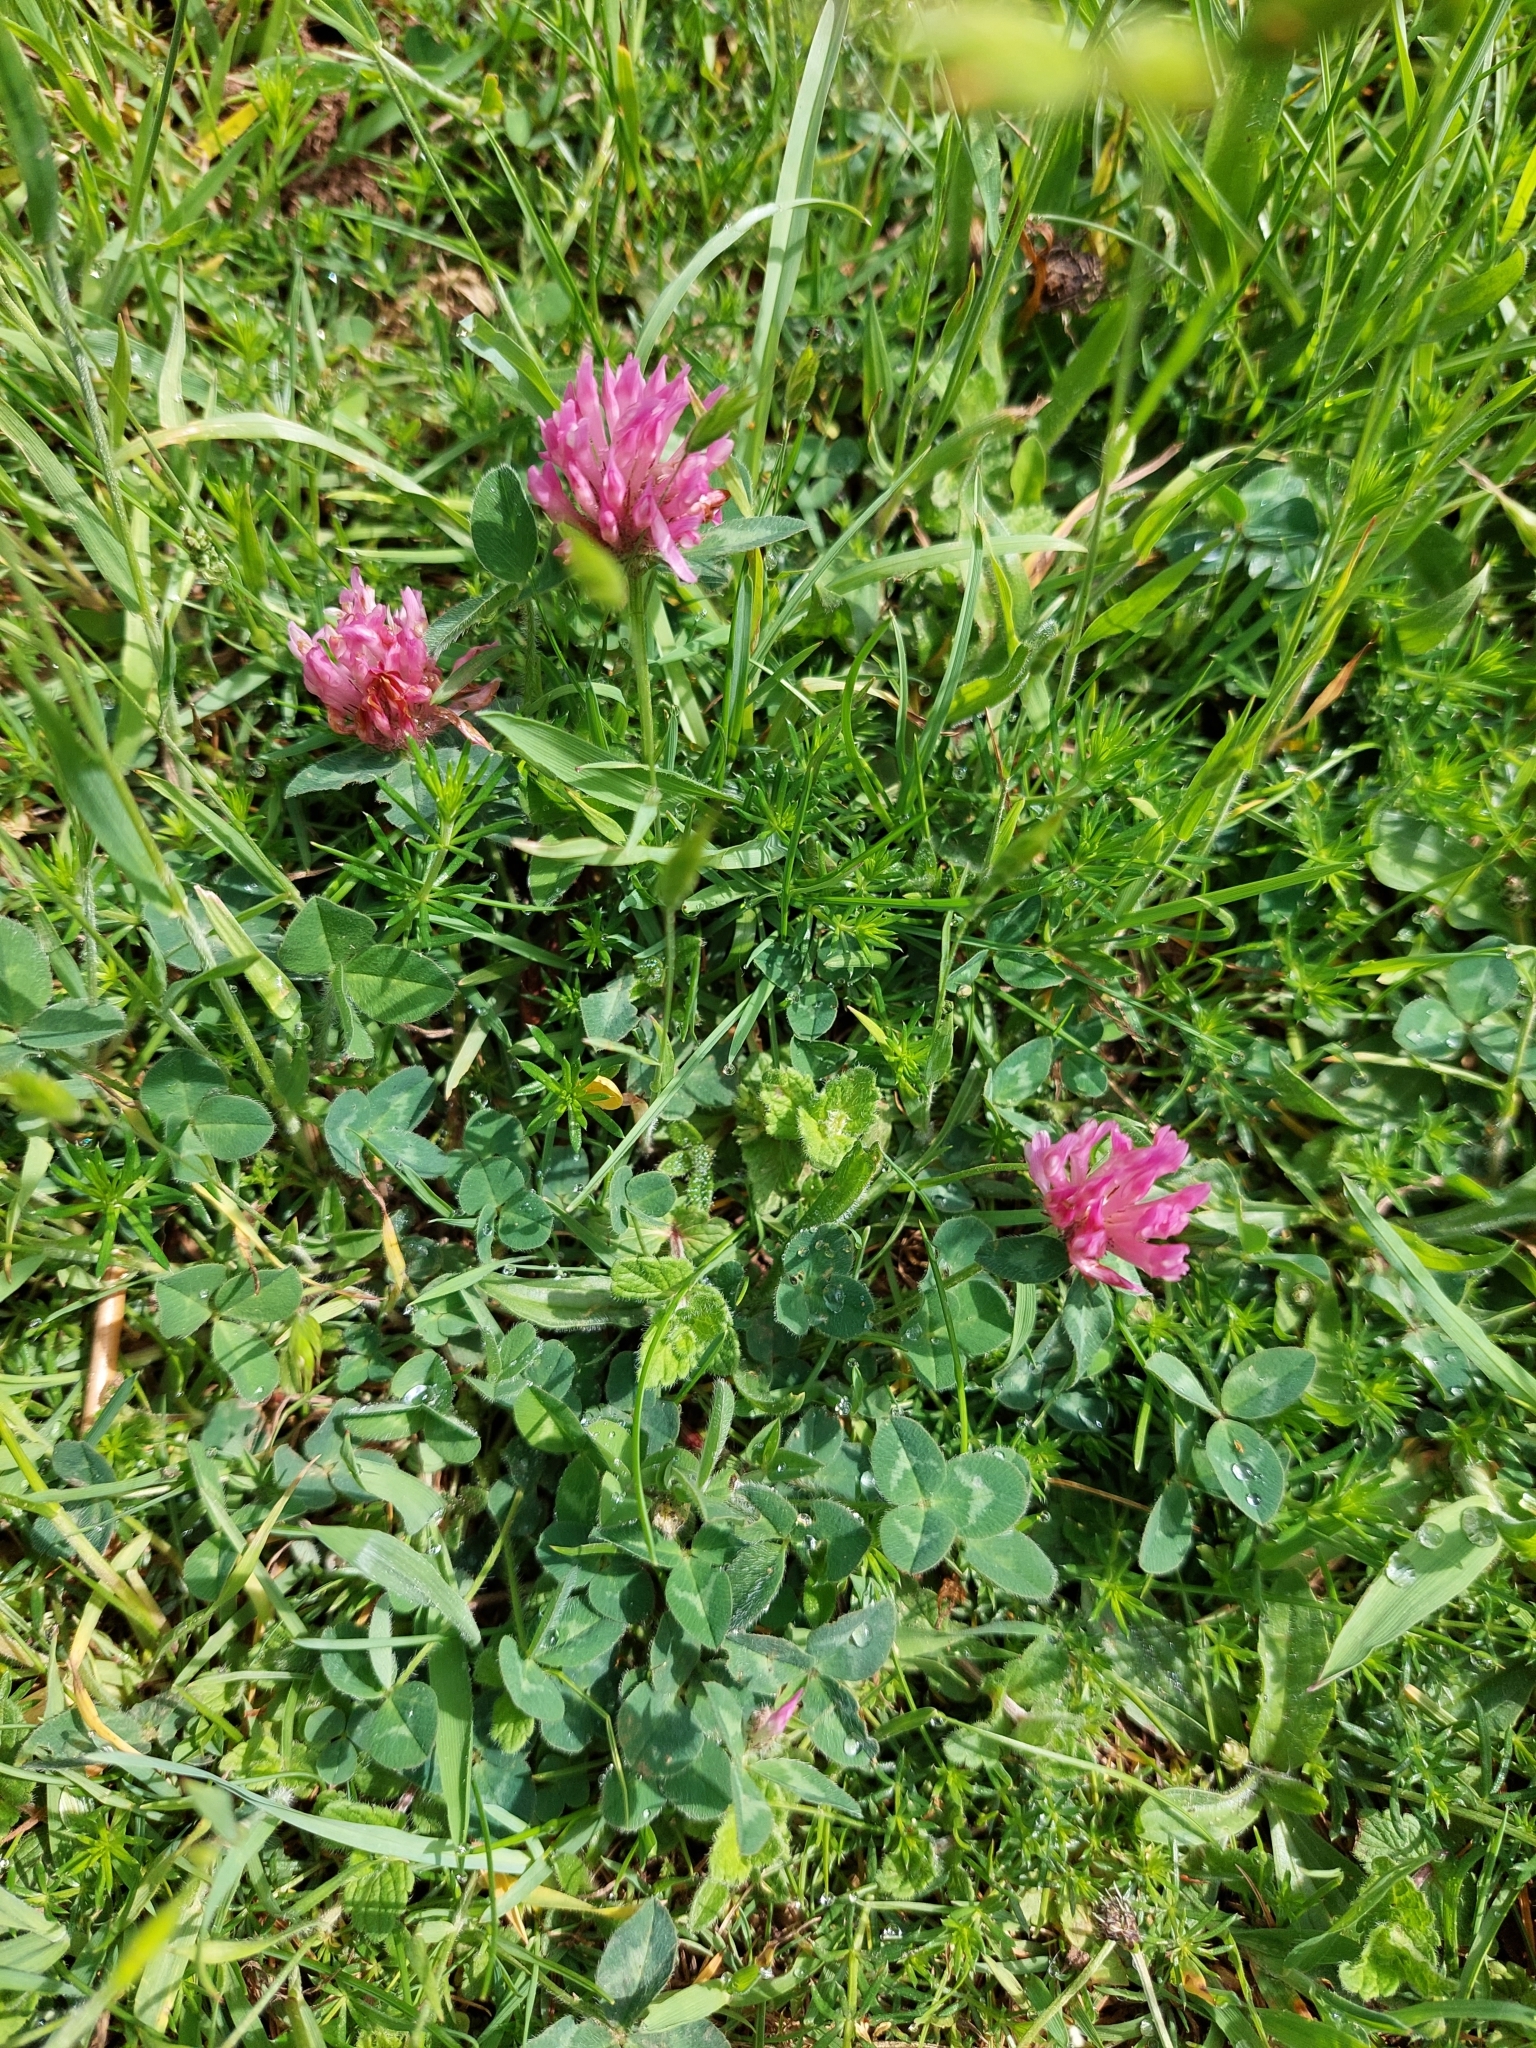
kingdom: Plantae
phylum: Tracheophyta
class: Magnoliopsida
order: Fabales
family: Fabaceae
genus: Trifolium
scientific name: Trifolium pratense
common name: Red clover
